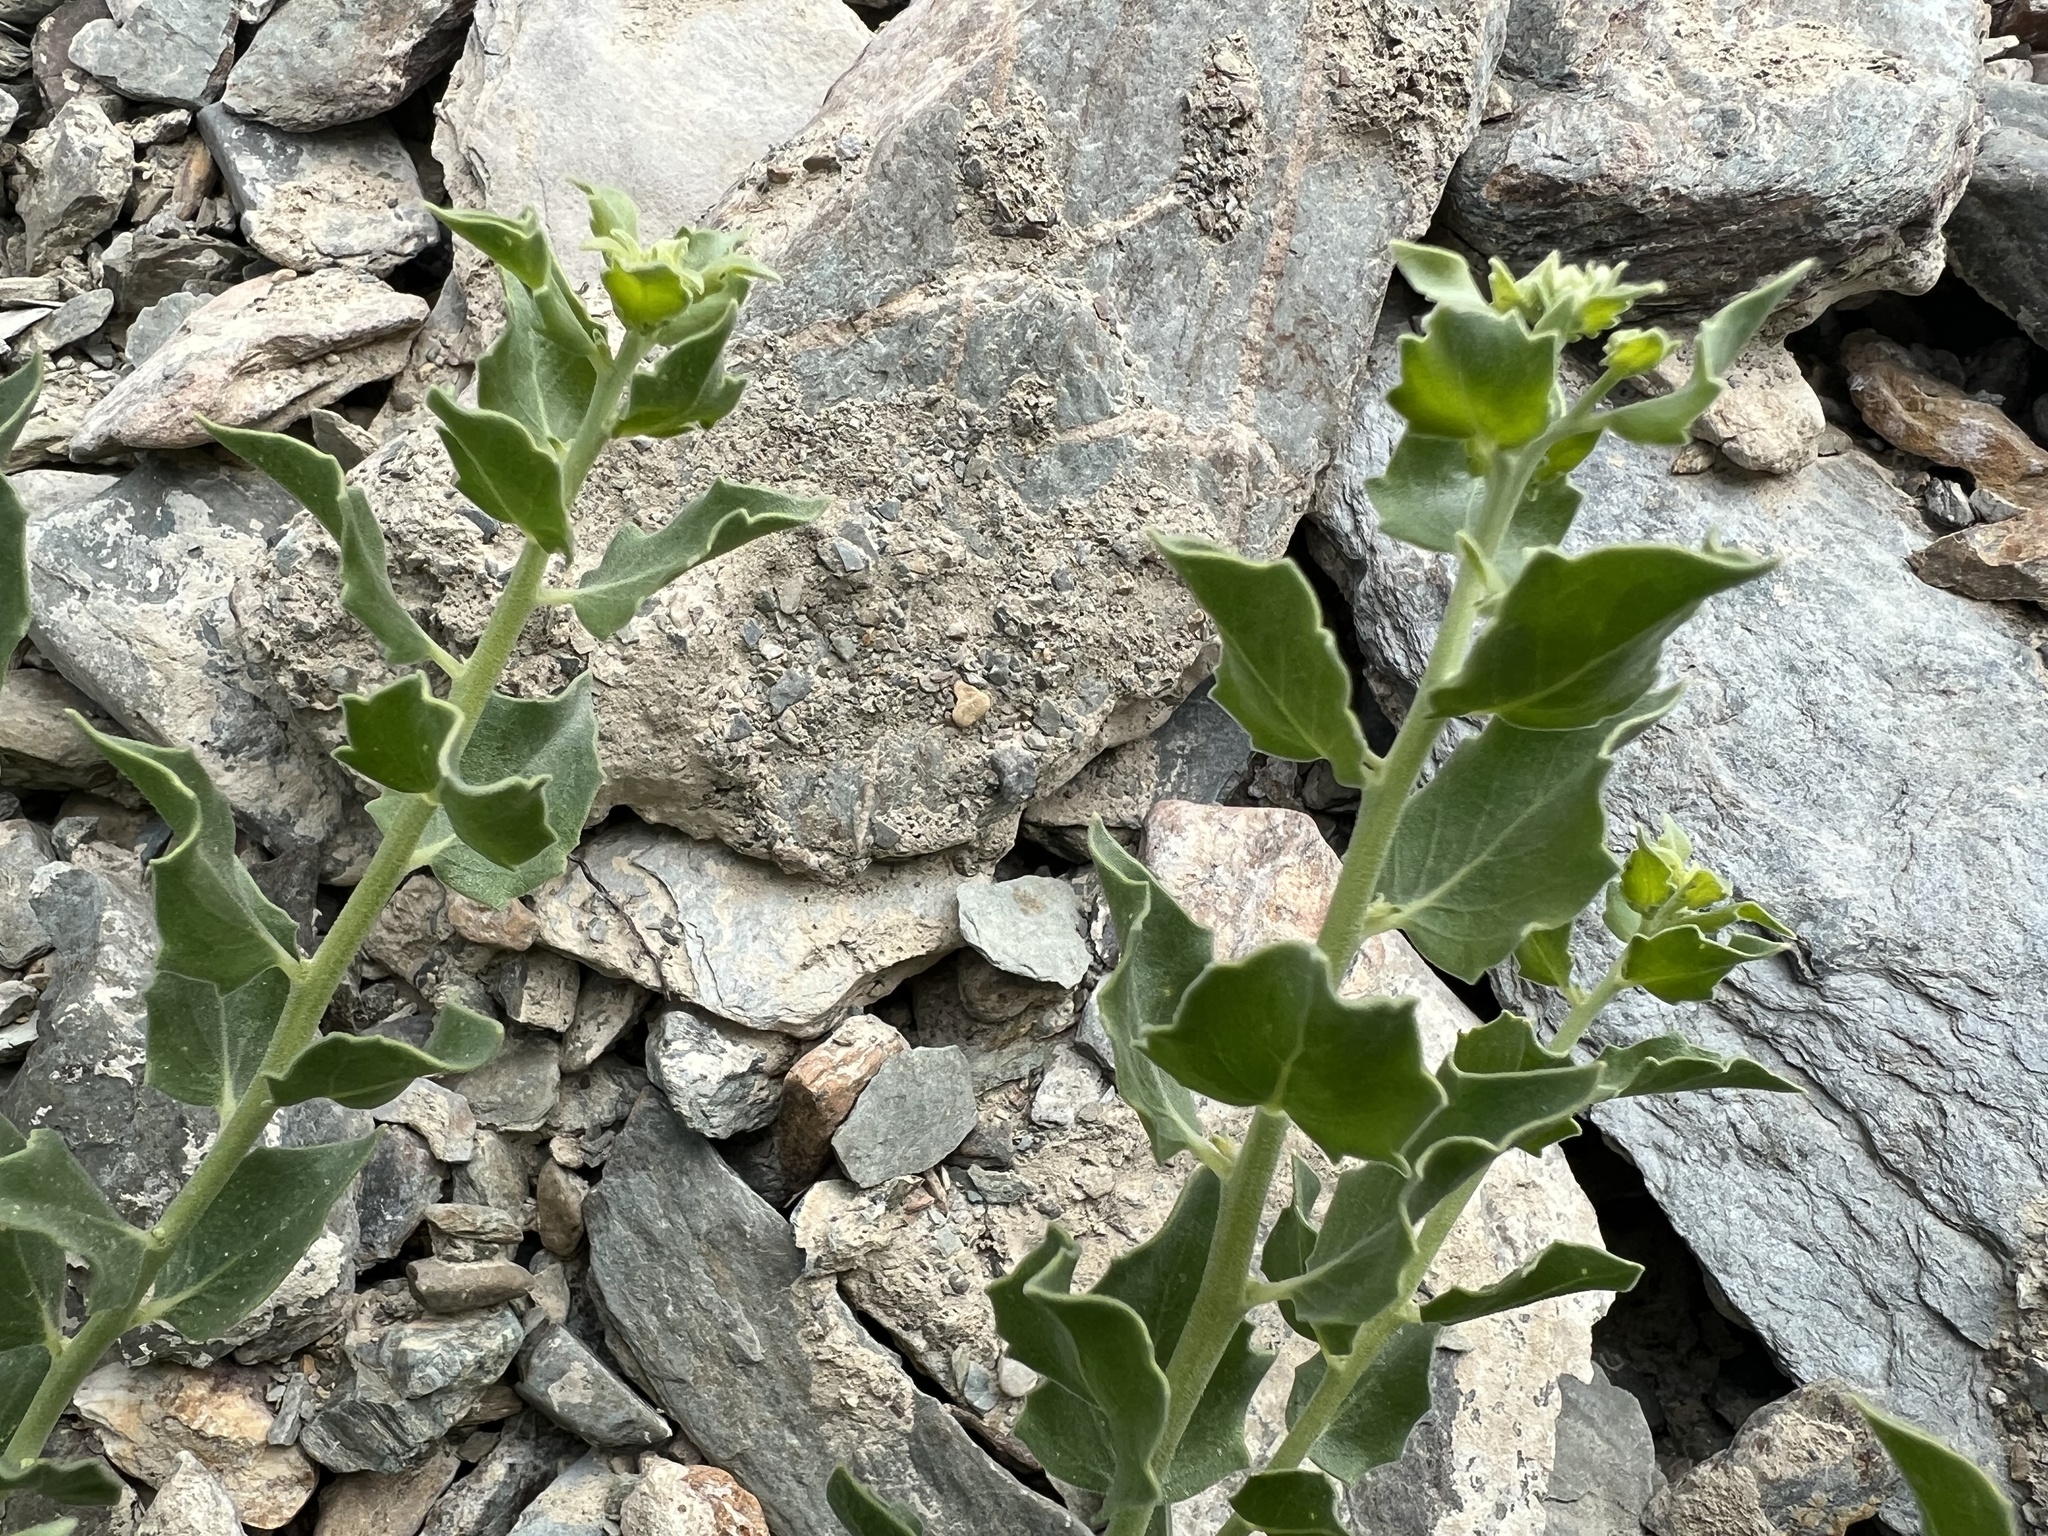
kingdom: Plantae
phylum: Tracheophyta
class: Magnoliopsida
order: Cornales
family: Loasaceae
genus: Petalonyx
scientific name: Petalonyx nitidus
